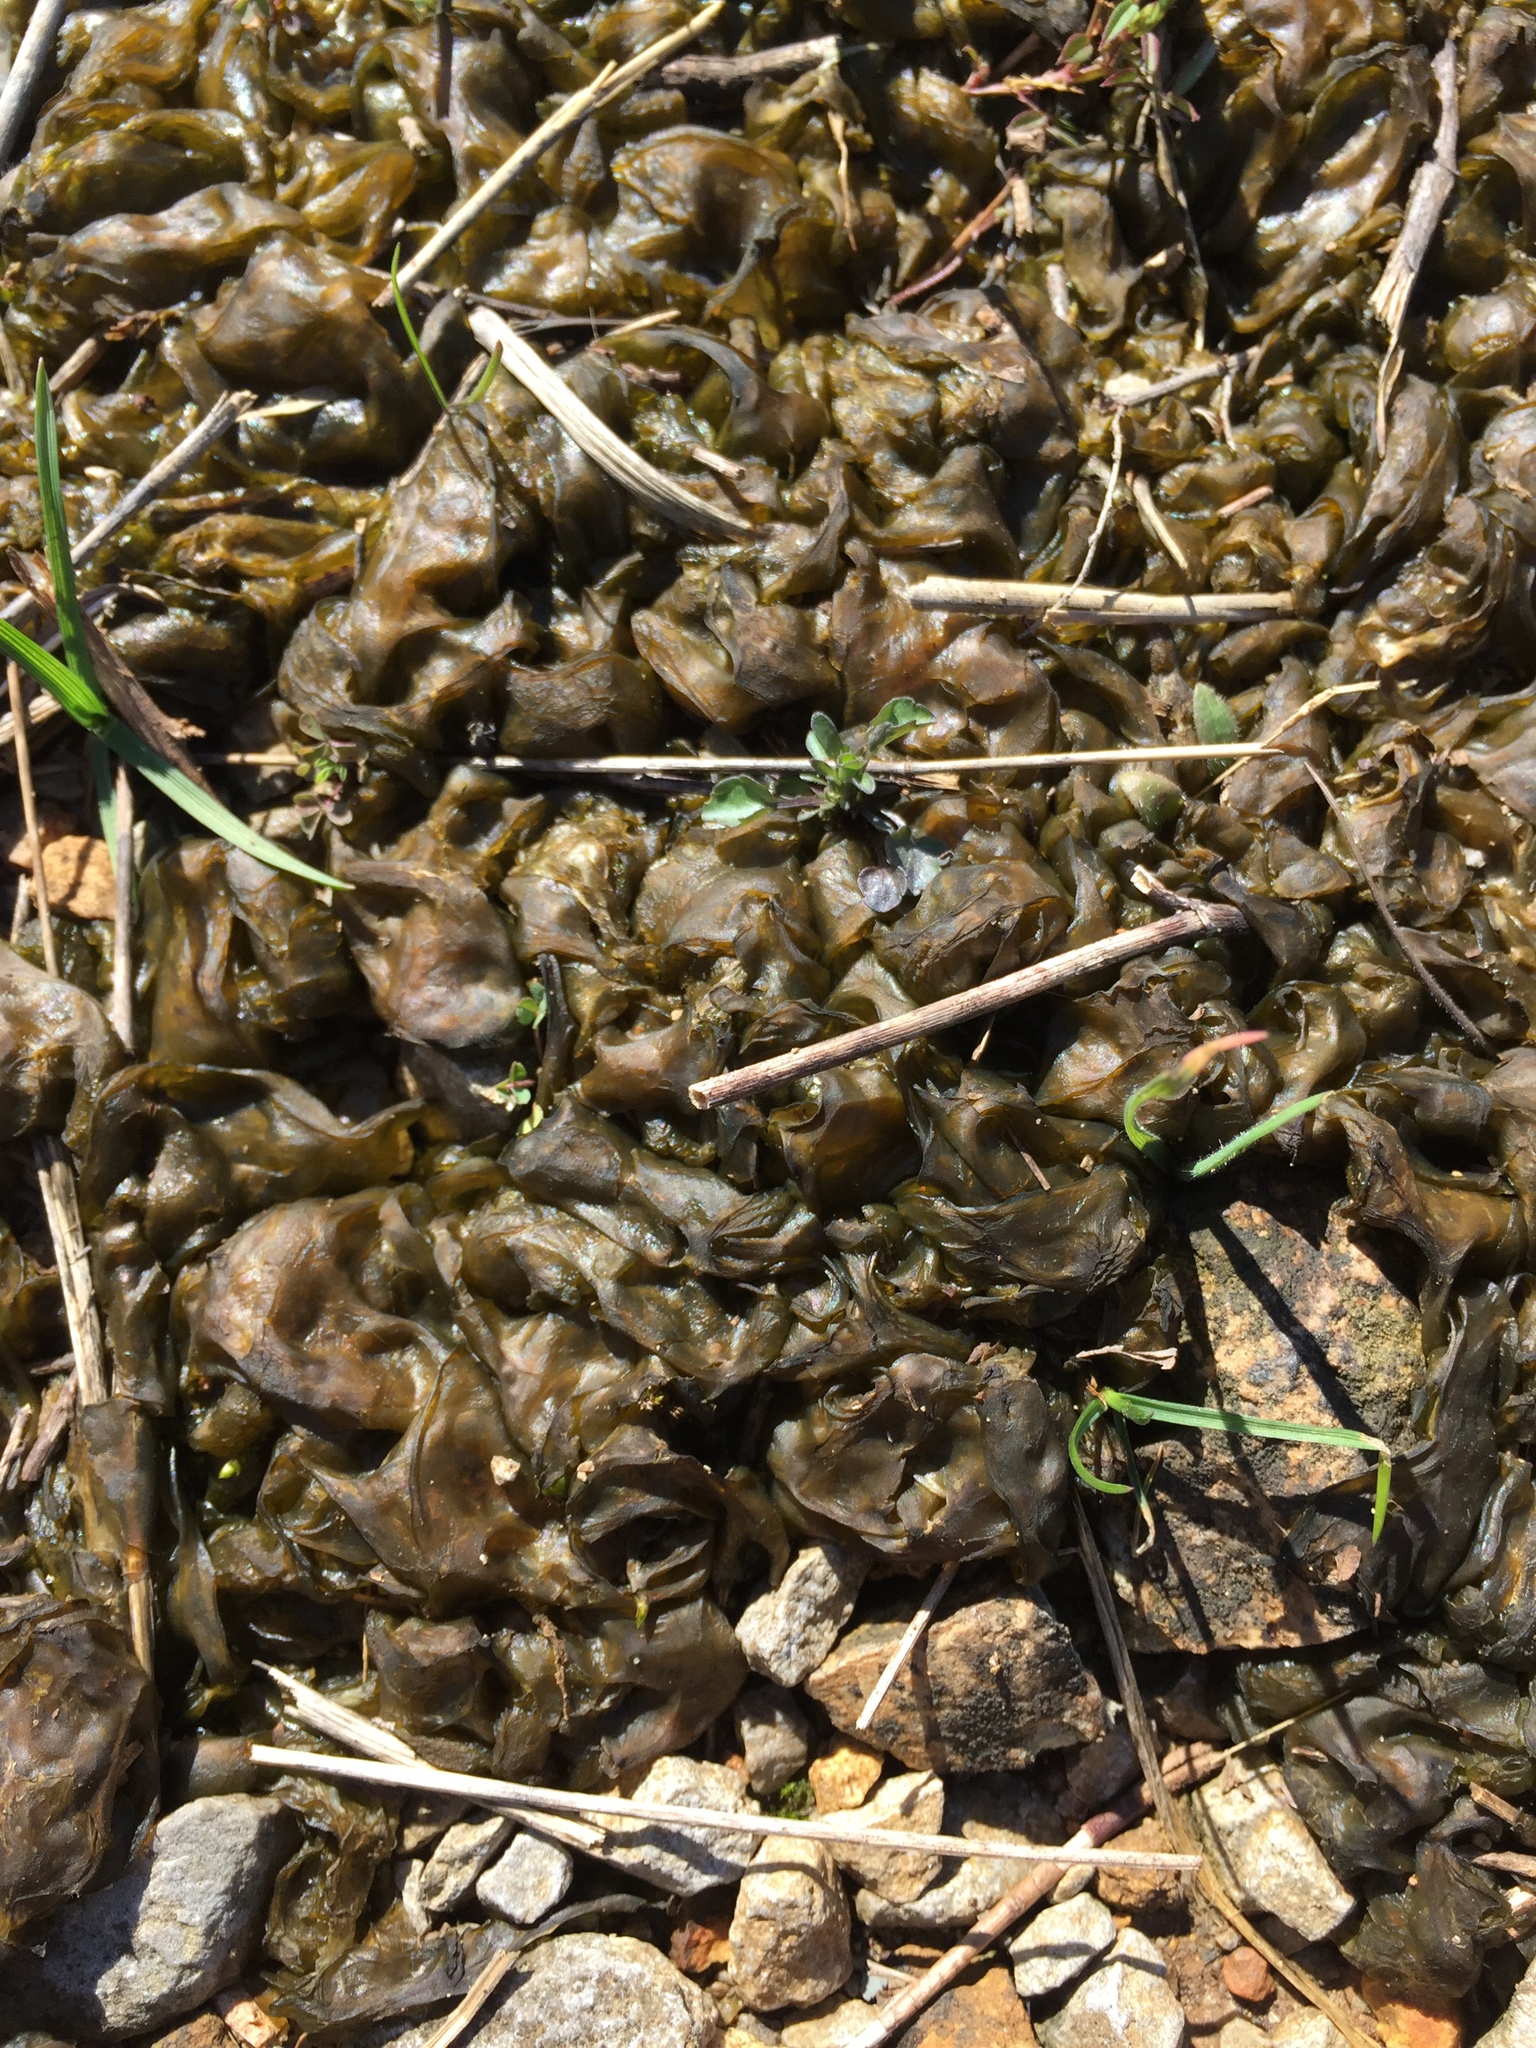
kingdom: Bacteria
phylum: Cyanobacteria
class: Cyanobacteriia
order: Cyanobacteriales
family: Nostocaceae
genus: Nostoc
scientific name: Nostoc commune
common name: Star jelly
